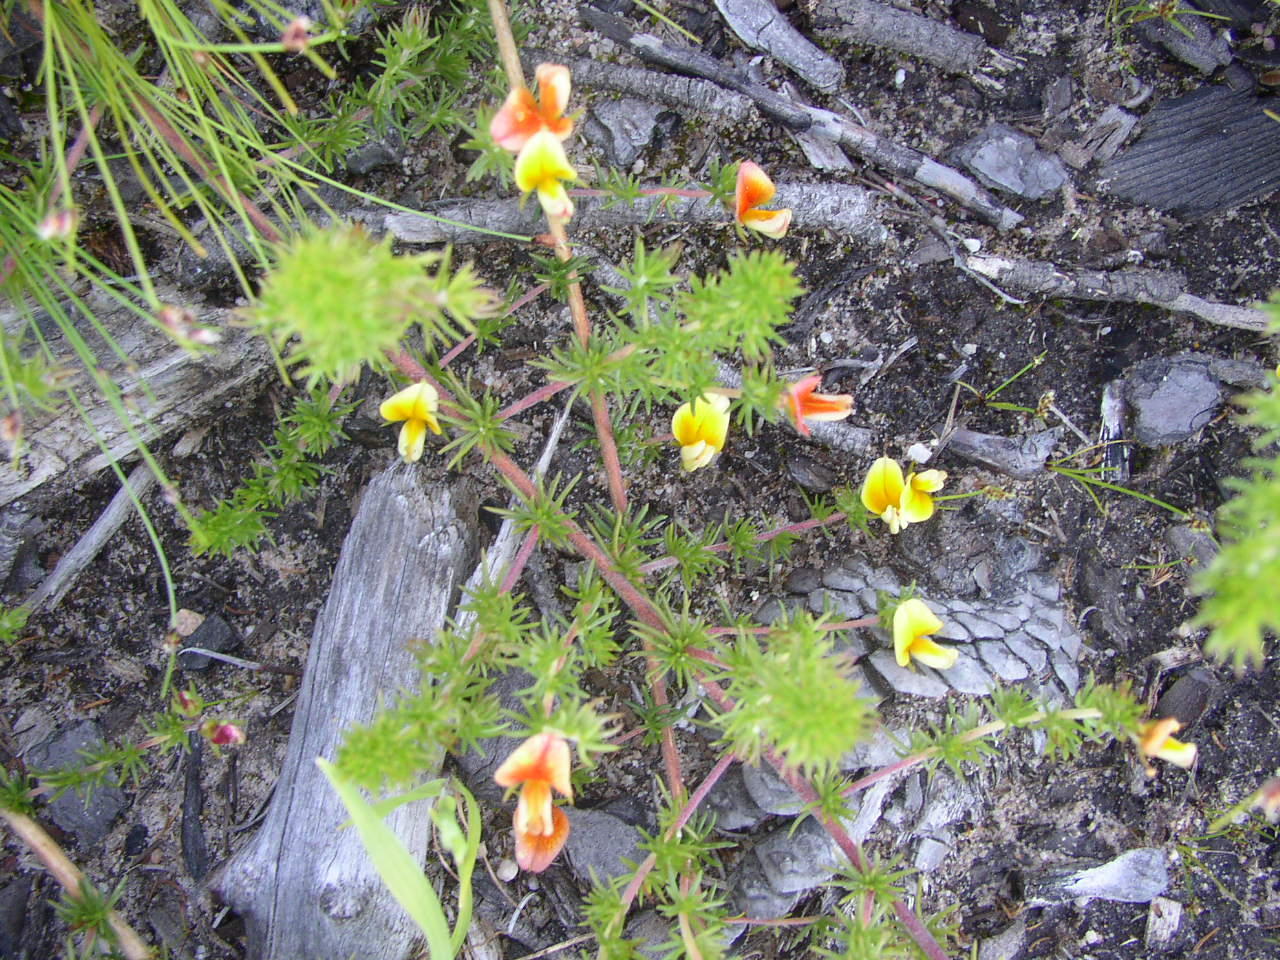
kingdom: Plantae
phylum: Tracheophyta
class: Magnoliopsida
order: Fabales
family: Fabaceae
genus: Aspalathus
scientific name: Aspalathus retroflexa
